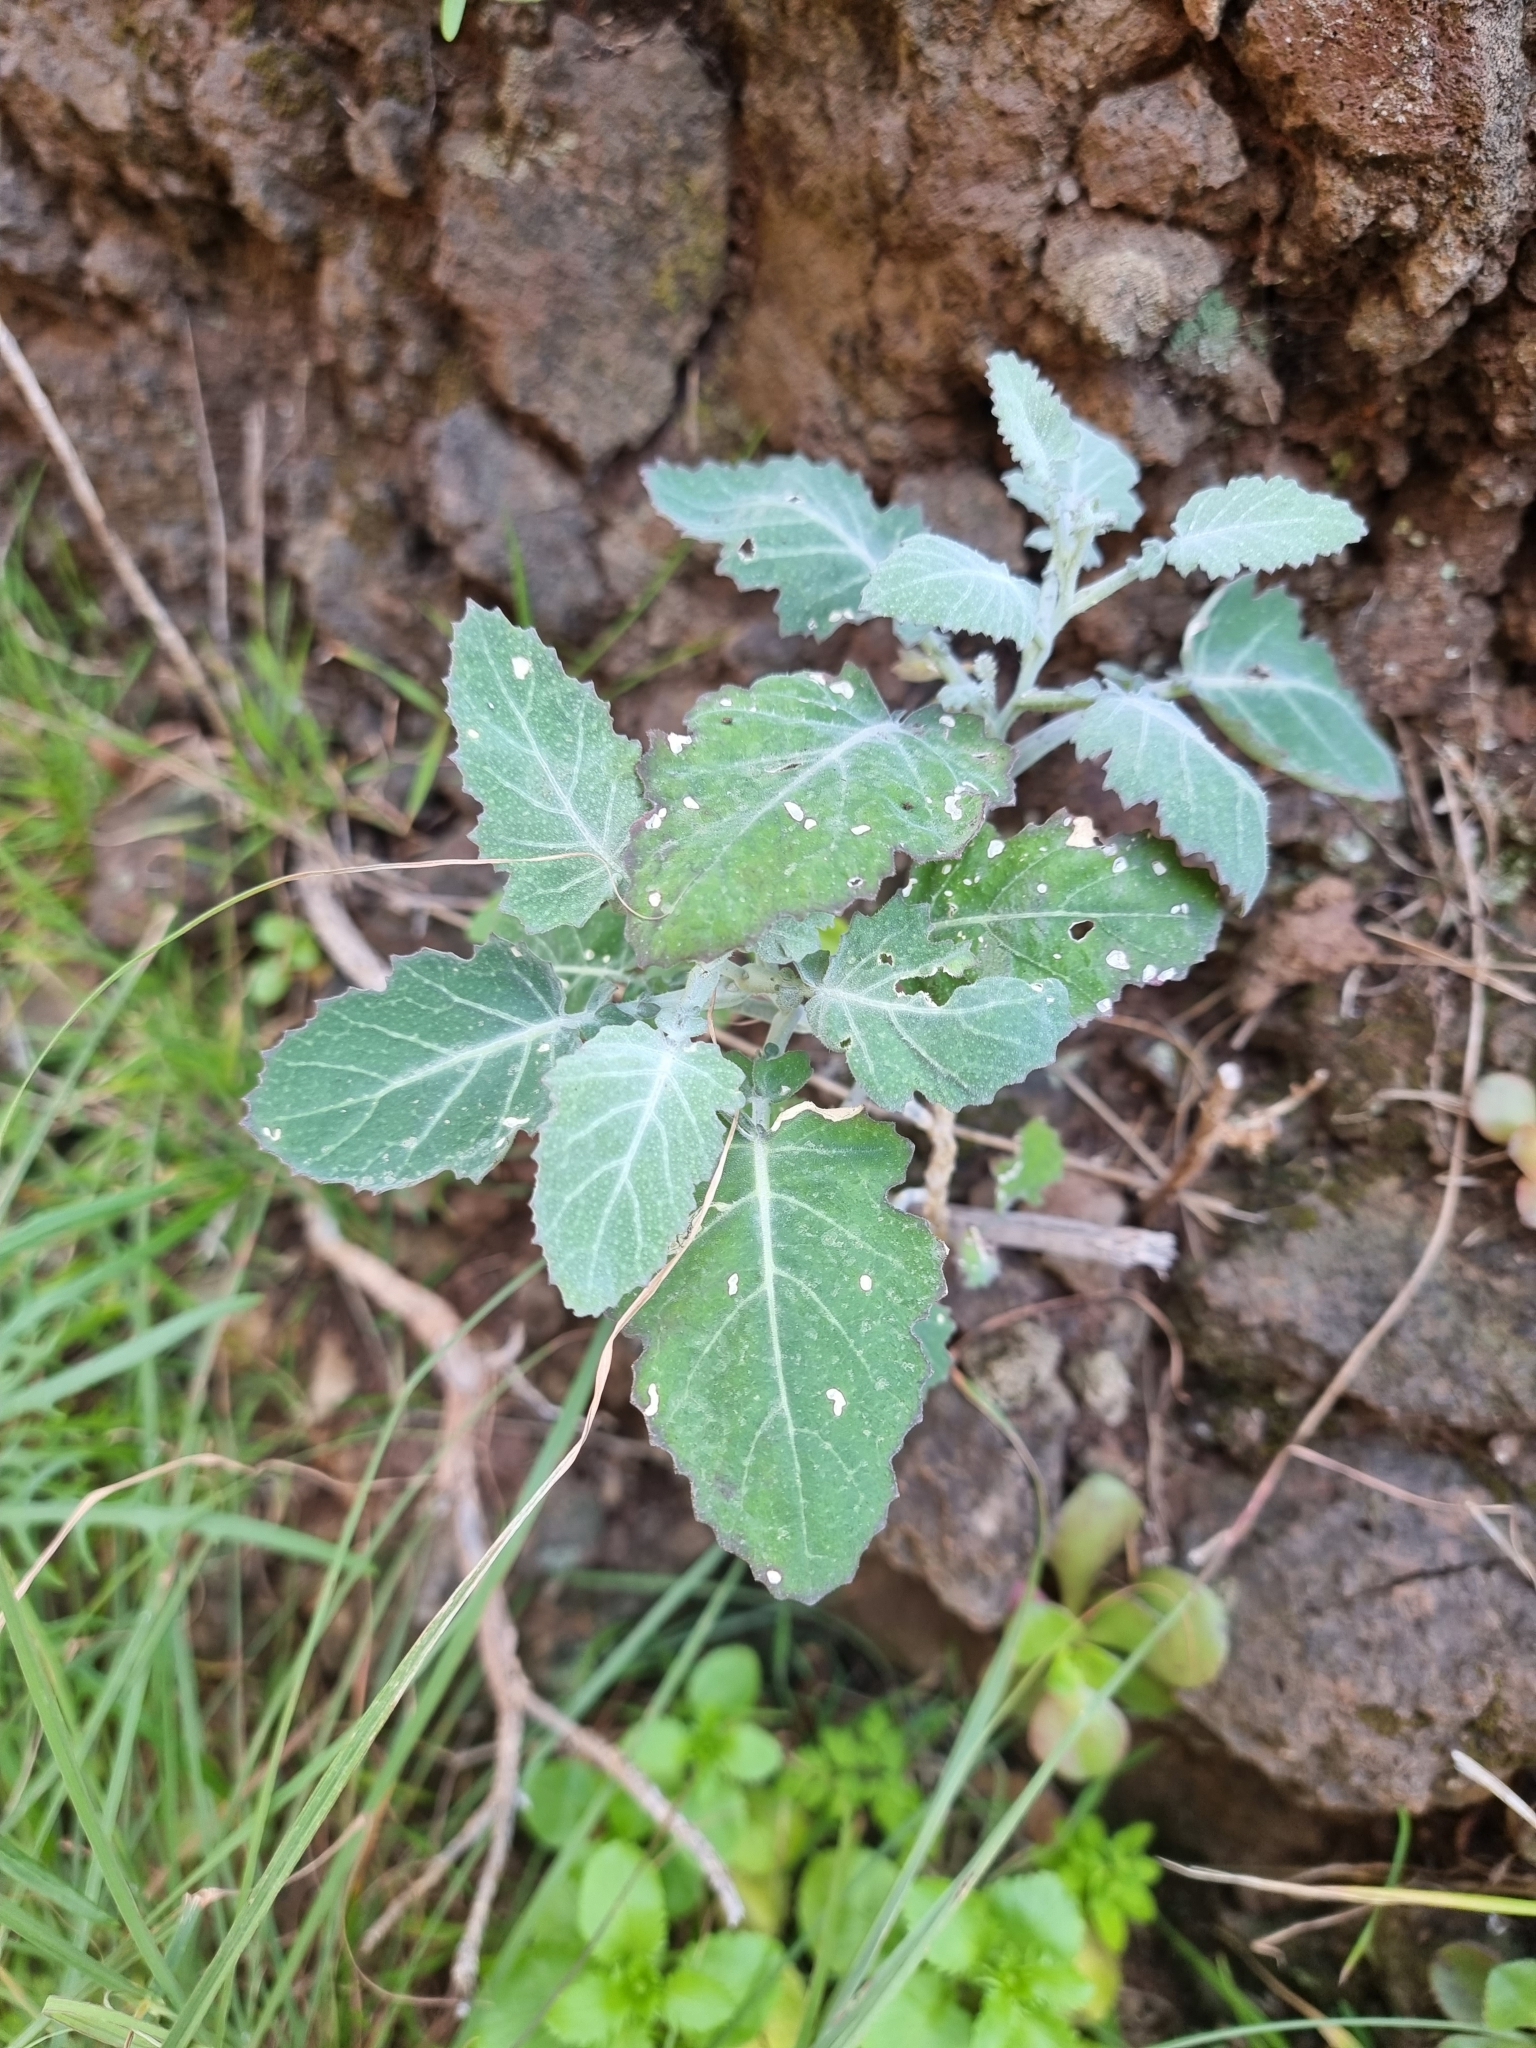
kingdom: Plantae
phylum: Tracheophyta
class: Magnoliopsida
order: Brassicales
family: Brassicaceae
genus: Crambe
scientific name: Crambe fruticosa
